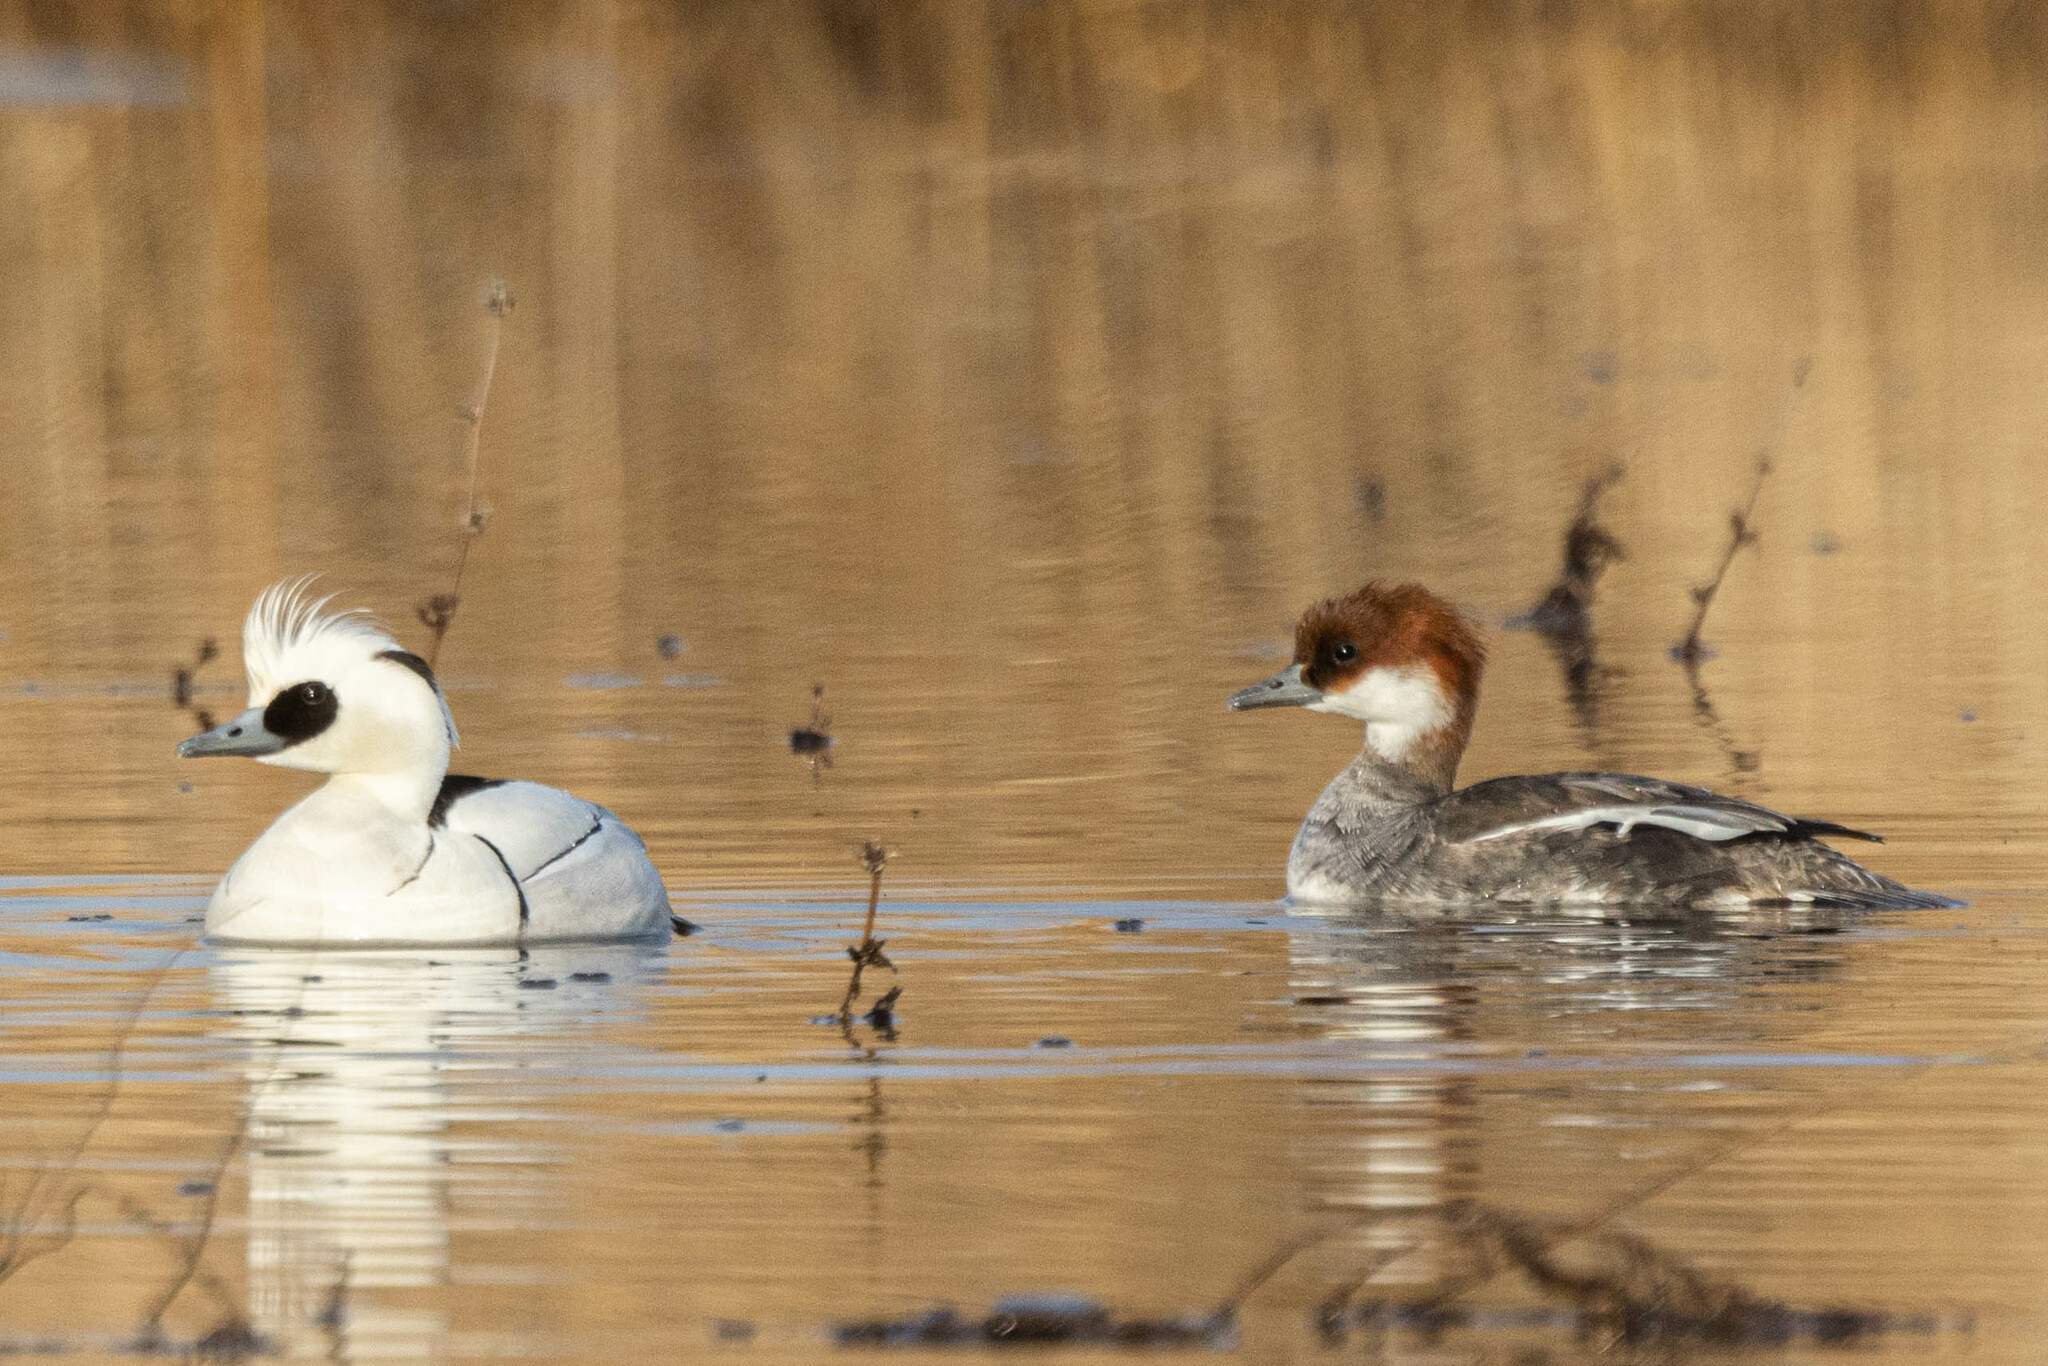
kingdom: Animalia
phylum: Chordata
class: Aves
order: Anseriformes
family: Anatidae
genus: Mergellus
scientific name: Mergellus albellus
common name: Smew
